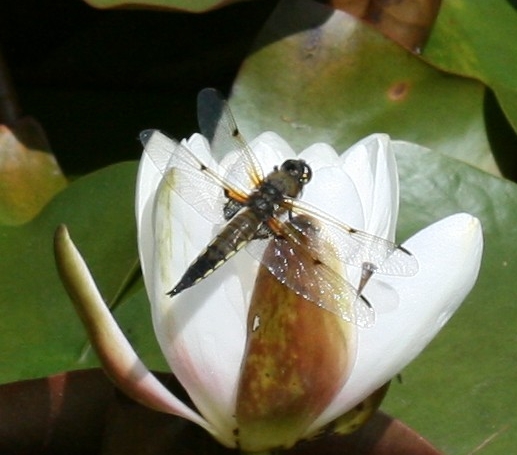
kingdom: Animalia
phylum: Arthropoda
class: Insecta
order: Odonata
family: Libellulidae
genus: Libellula
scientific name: Libellula quadrimaculata
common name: Four-spotted chaser
